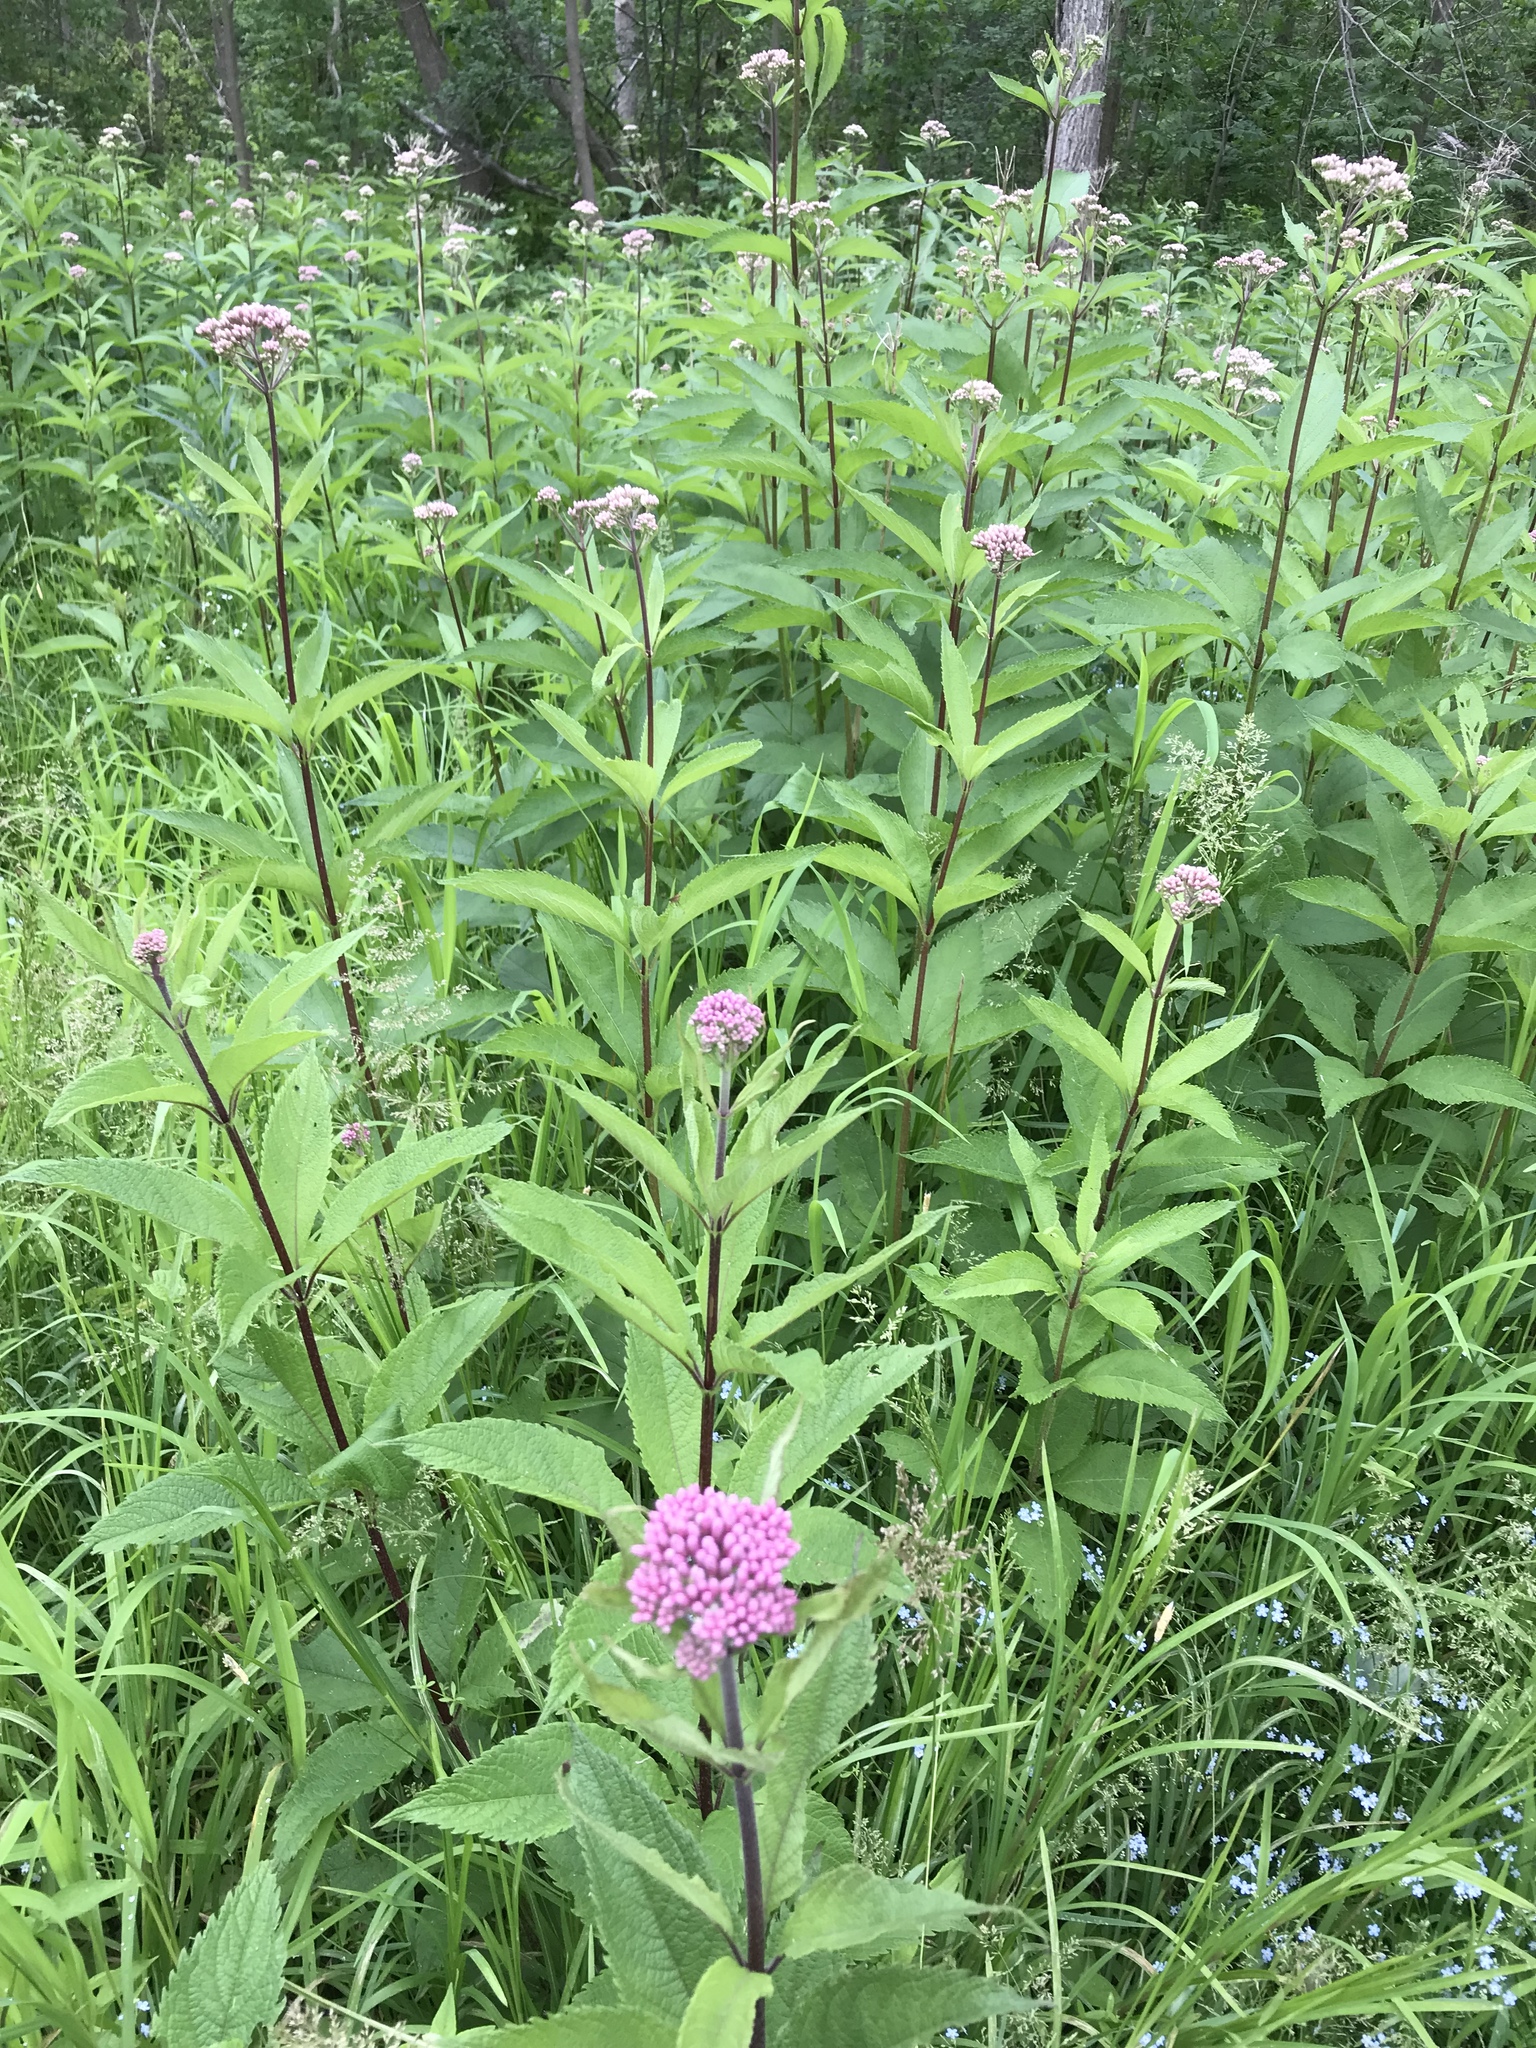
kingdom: Plantae
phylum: Tracheophyta
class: Magnoliopsida
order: Asterales
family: Asteraceae
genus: Eutrochium
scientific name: Eutrochium maculatum
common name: Spotted joe pye weed
